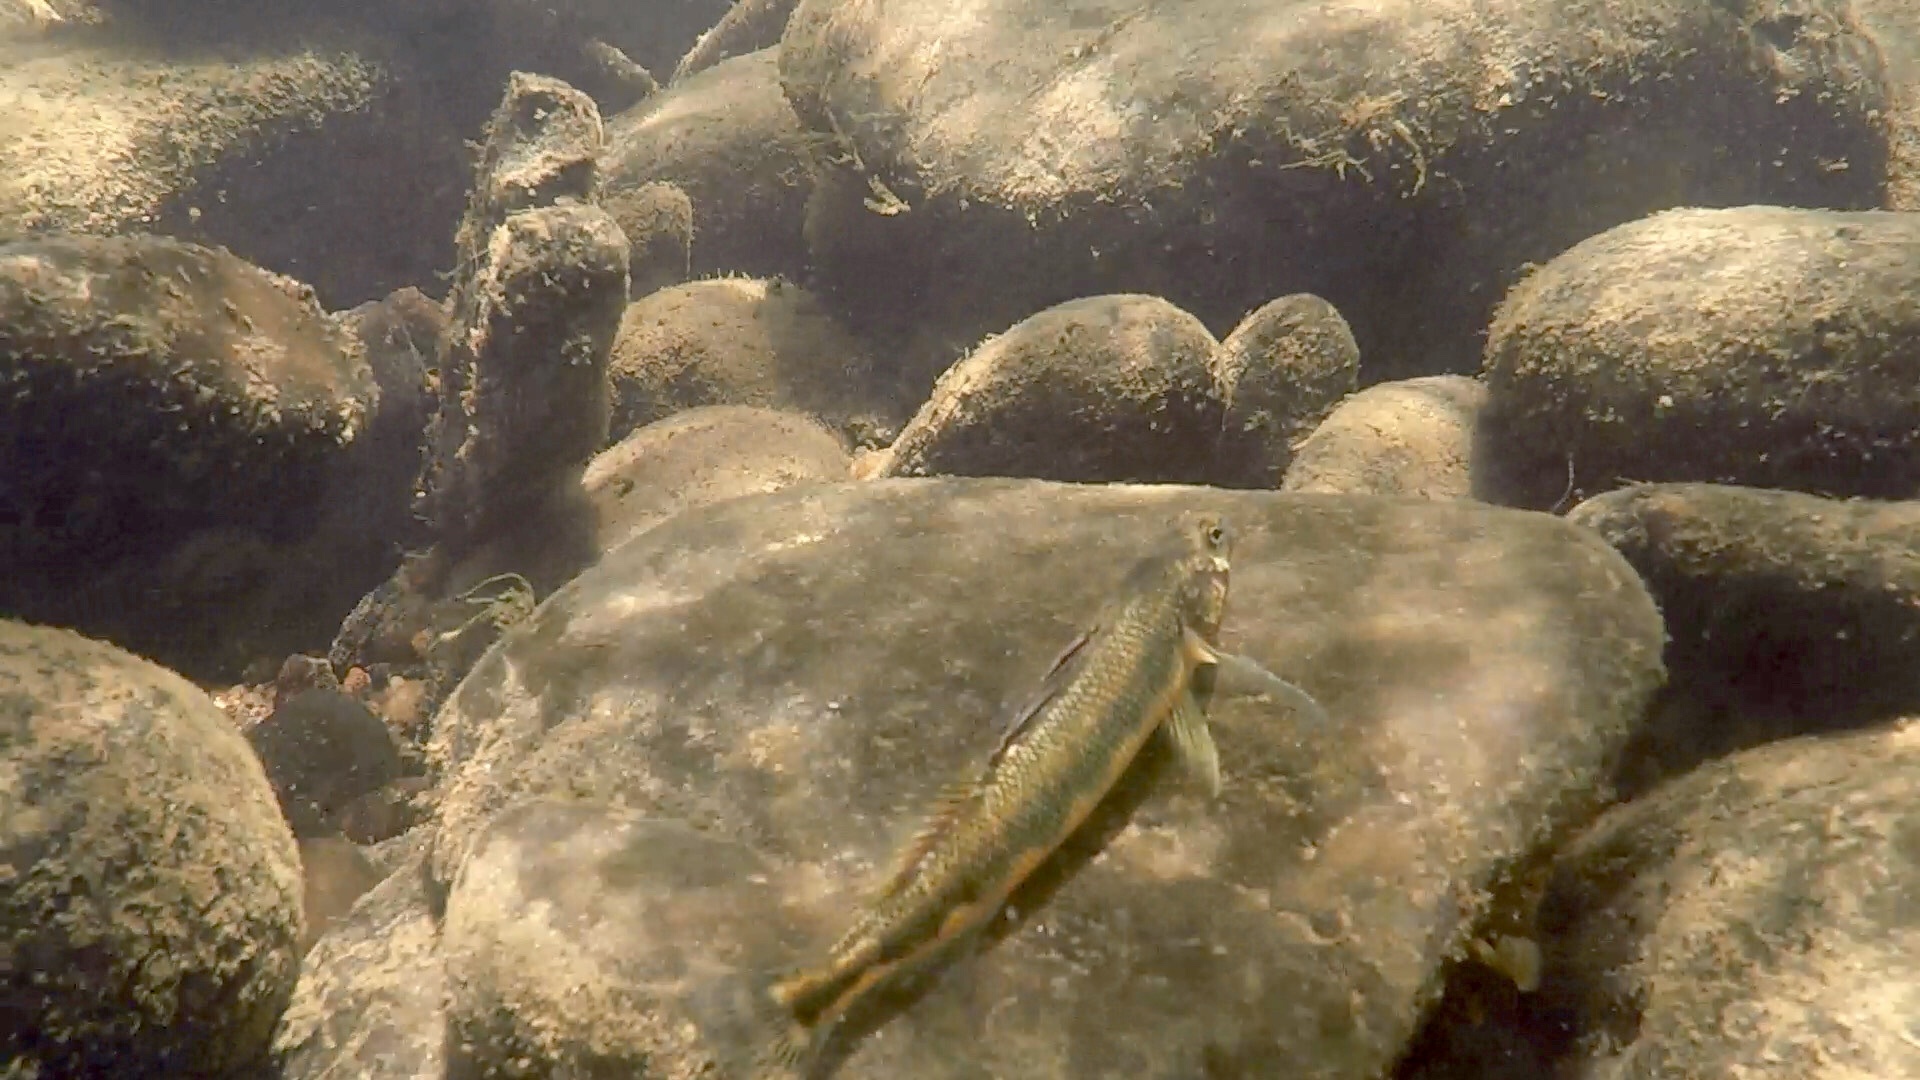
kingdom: Animalia
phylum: Chordata
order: Perciformes
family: Percidae
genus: Percina
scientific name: Percina evides
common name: Gilt darter
